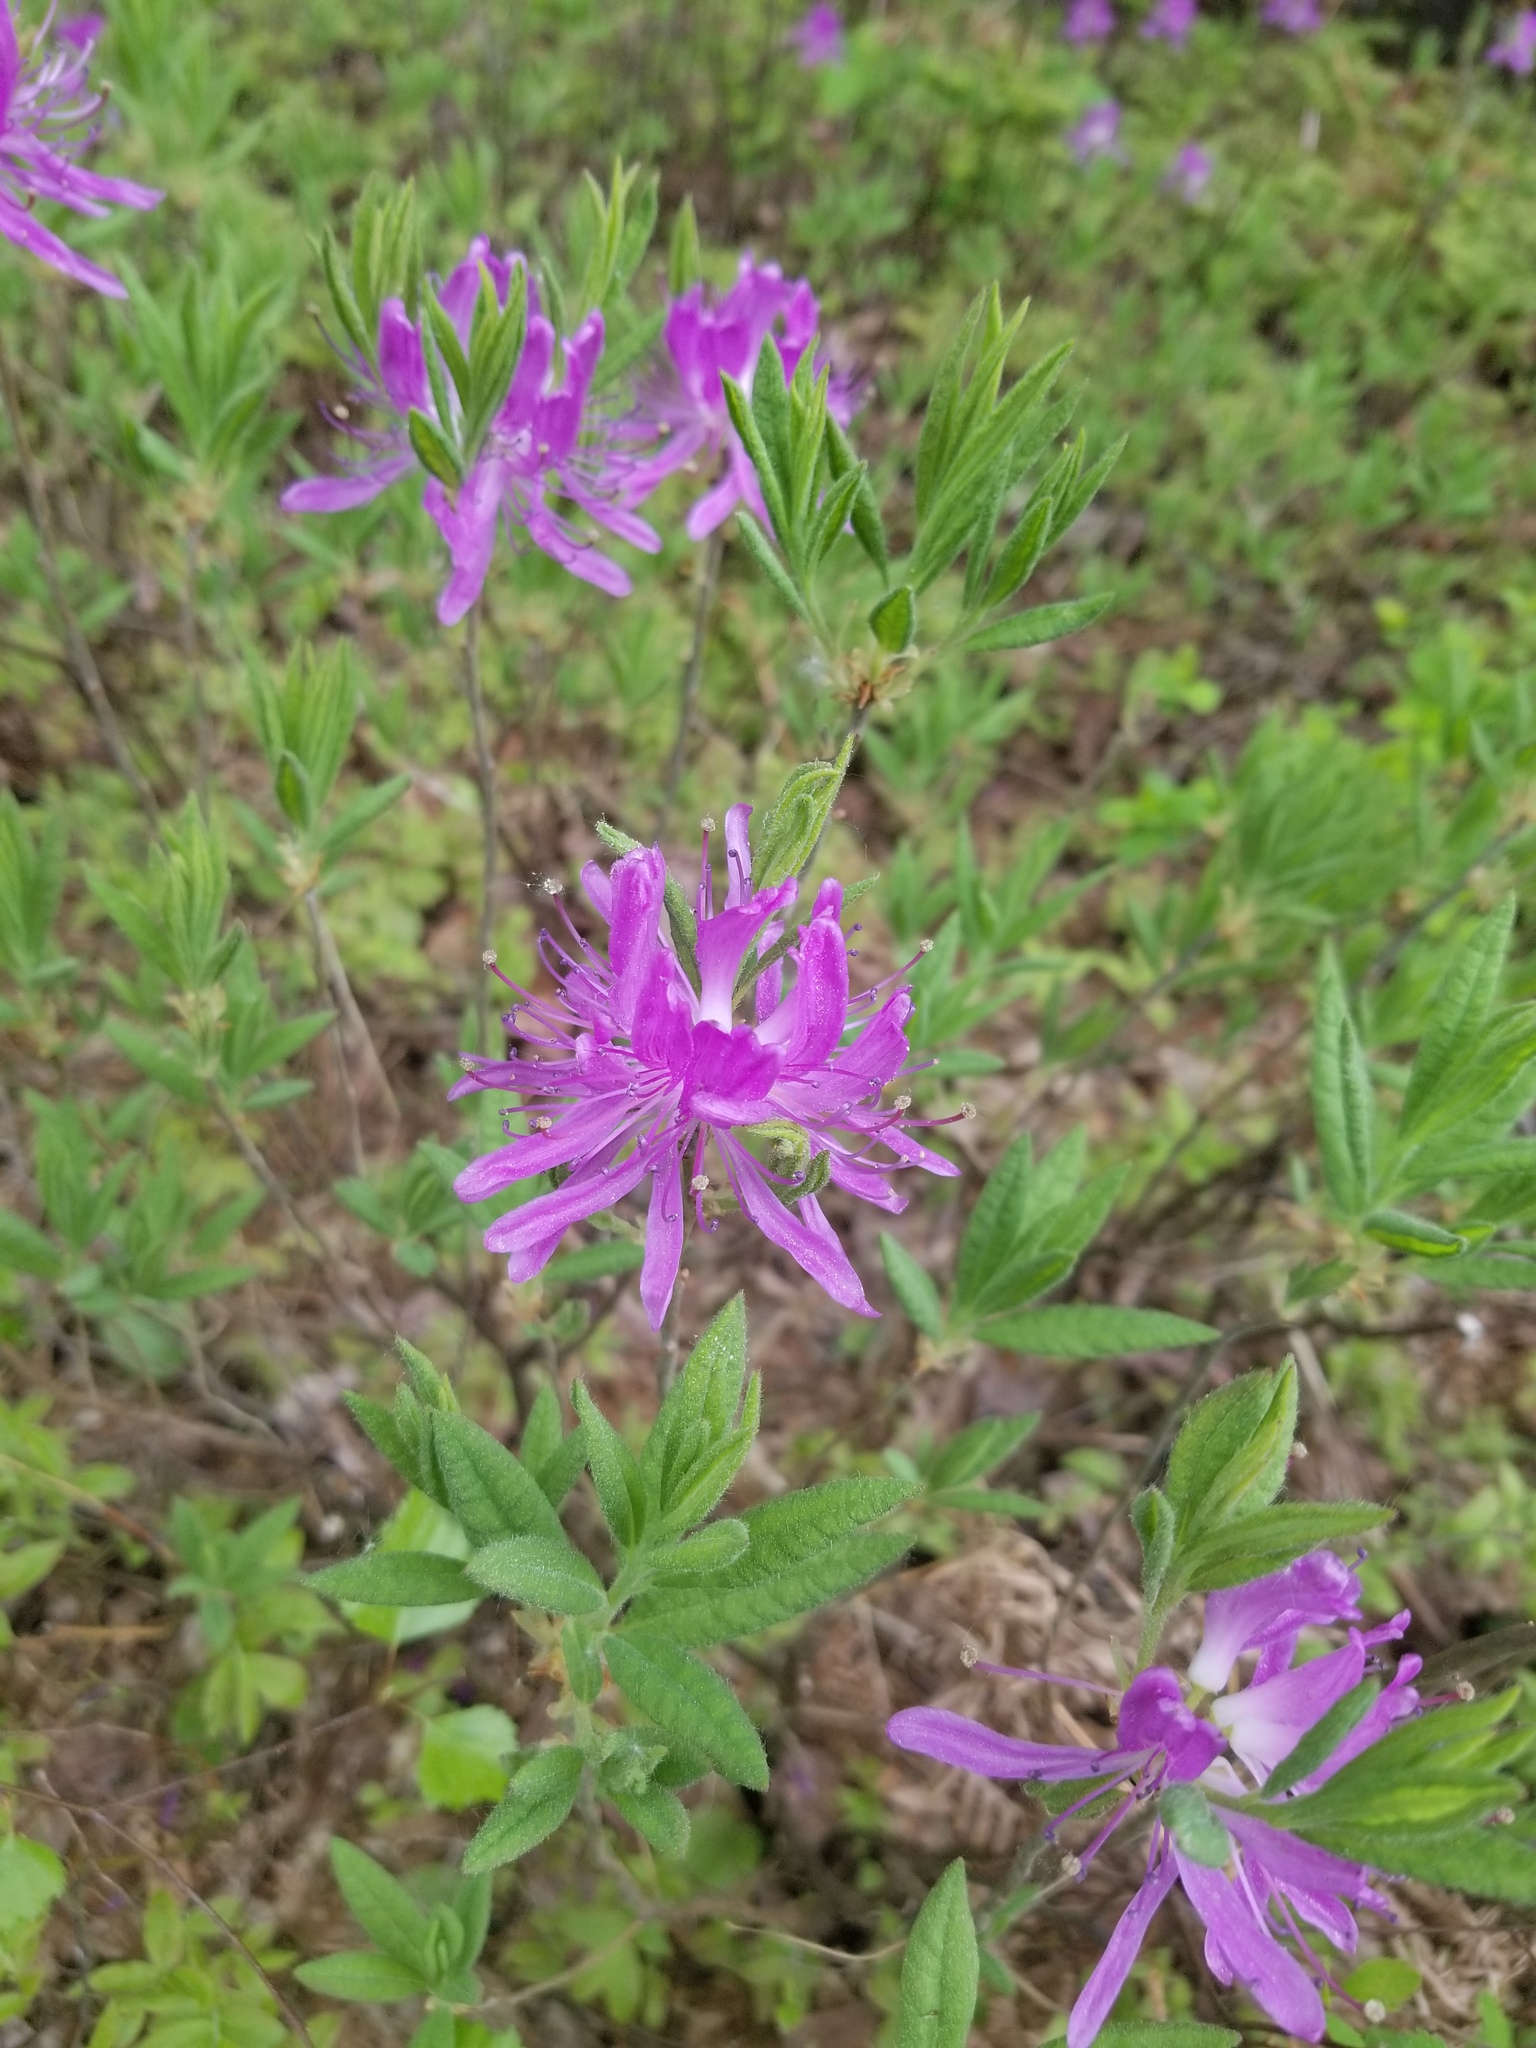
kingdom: Plantae
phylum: Tracheophyta
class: Magnoliopsida
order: Ericales
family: Ericaceae
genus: Rhododendron
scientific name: Rhododendron canadense
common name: Rhodora
